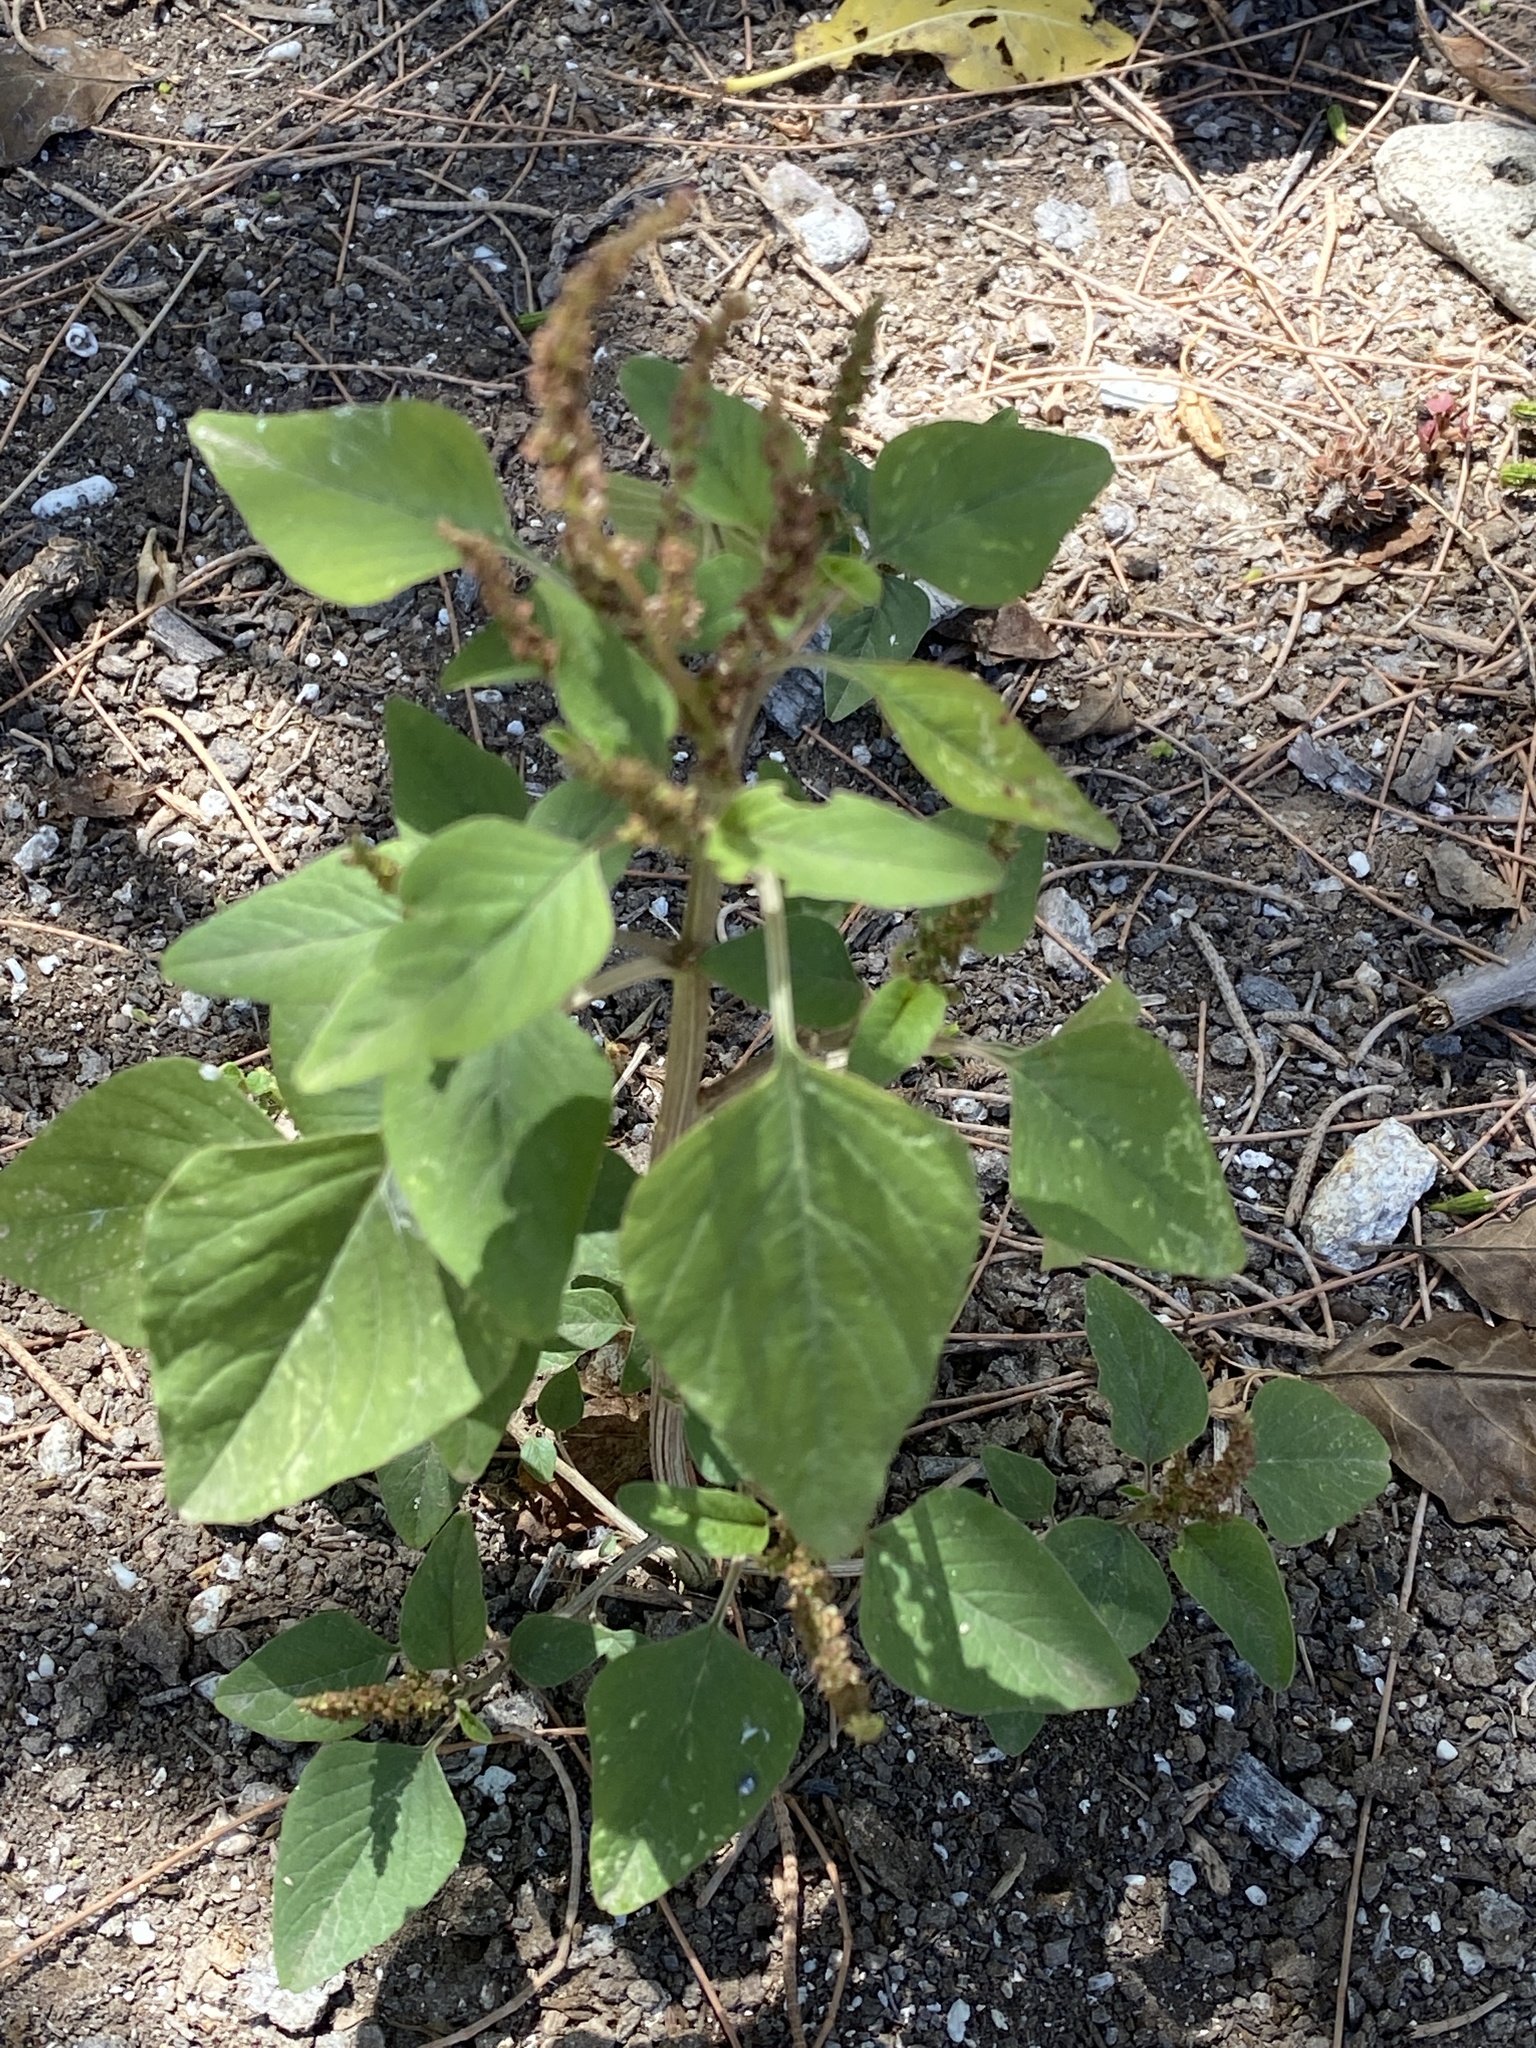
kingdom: Plantae
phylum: Tracheophyta
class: Magnoliopsida
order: Caryophyllales
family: Amaranthaceae
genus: Amaranthus
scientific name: Amaranthus viridis
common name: Slender amaranth
